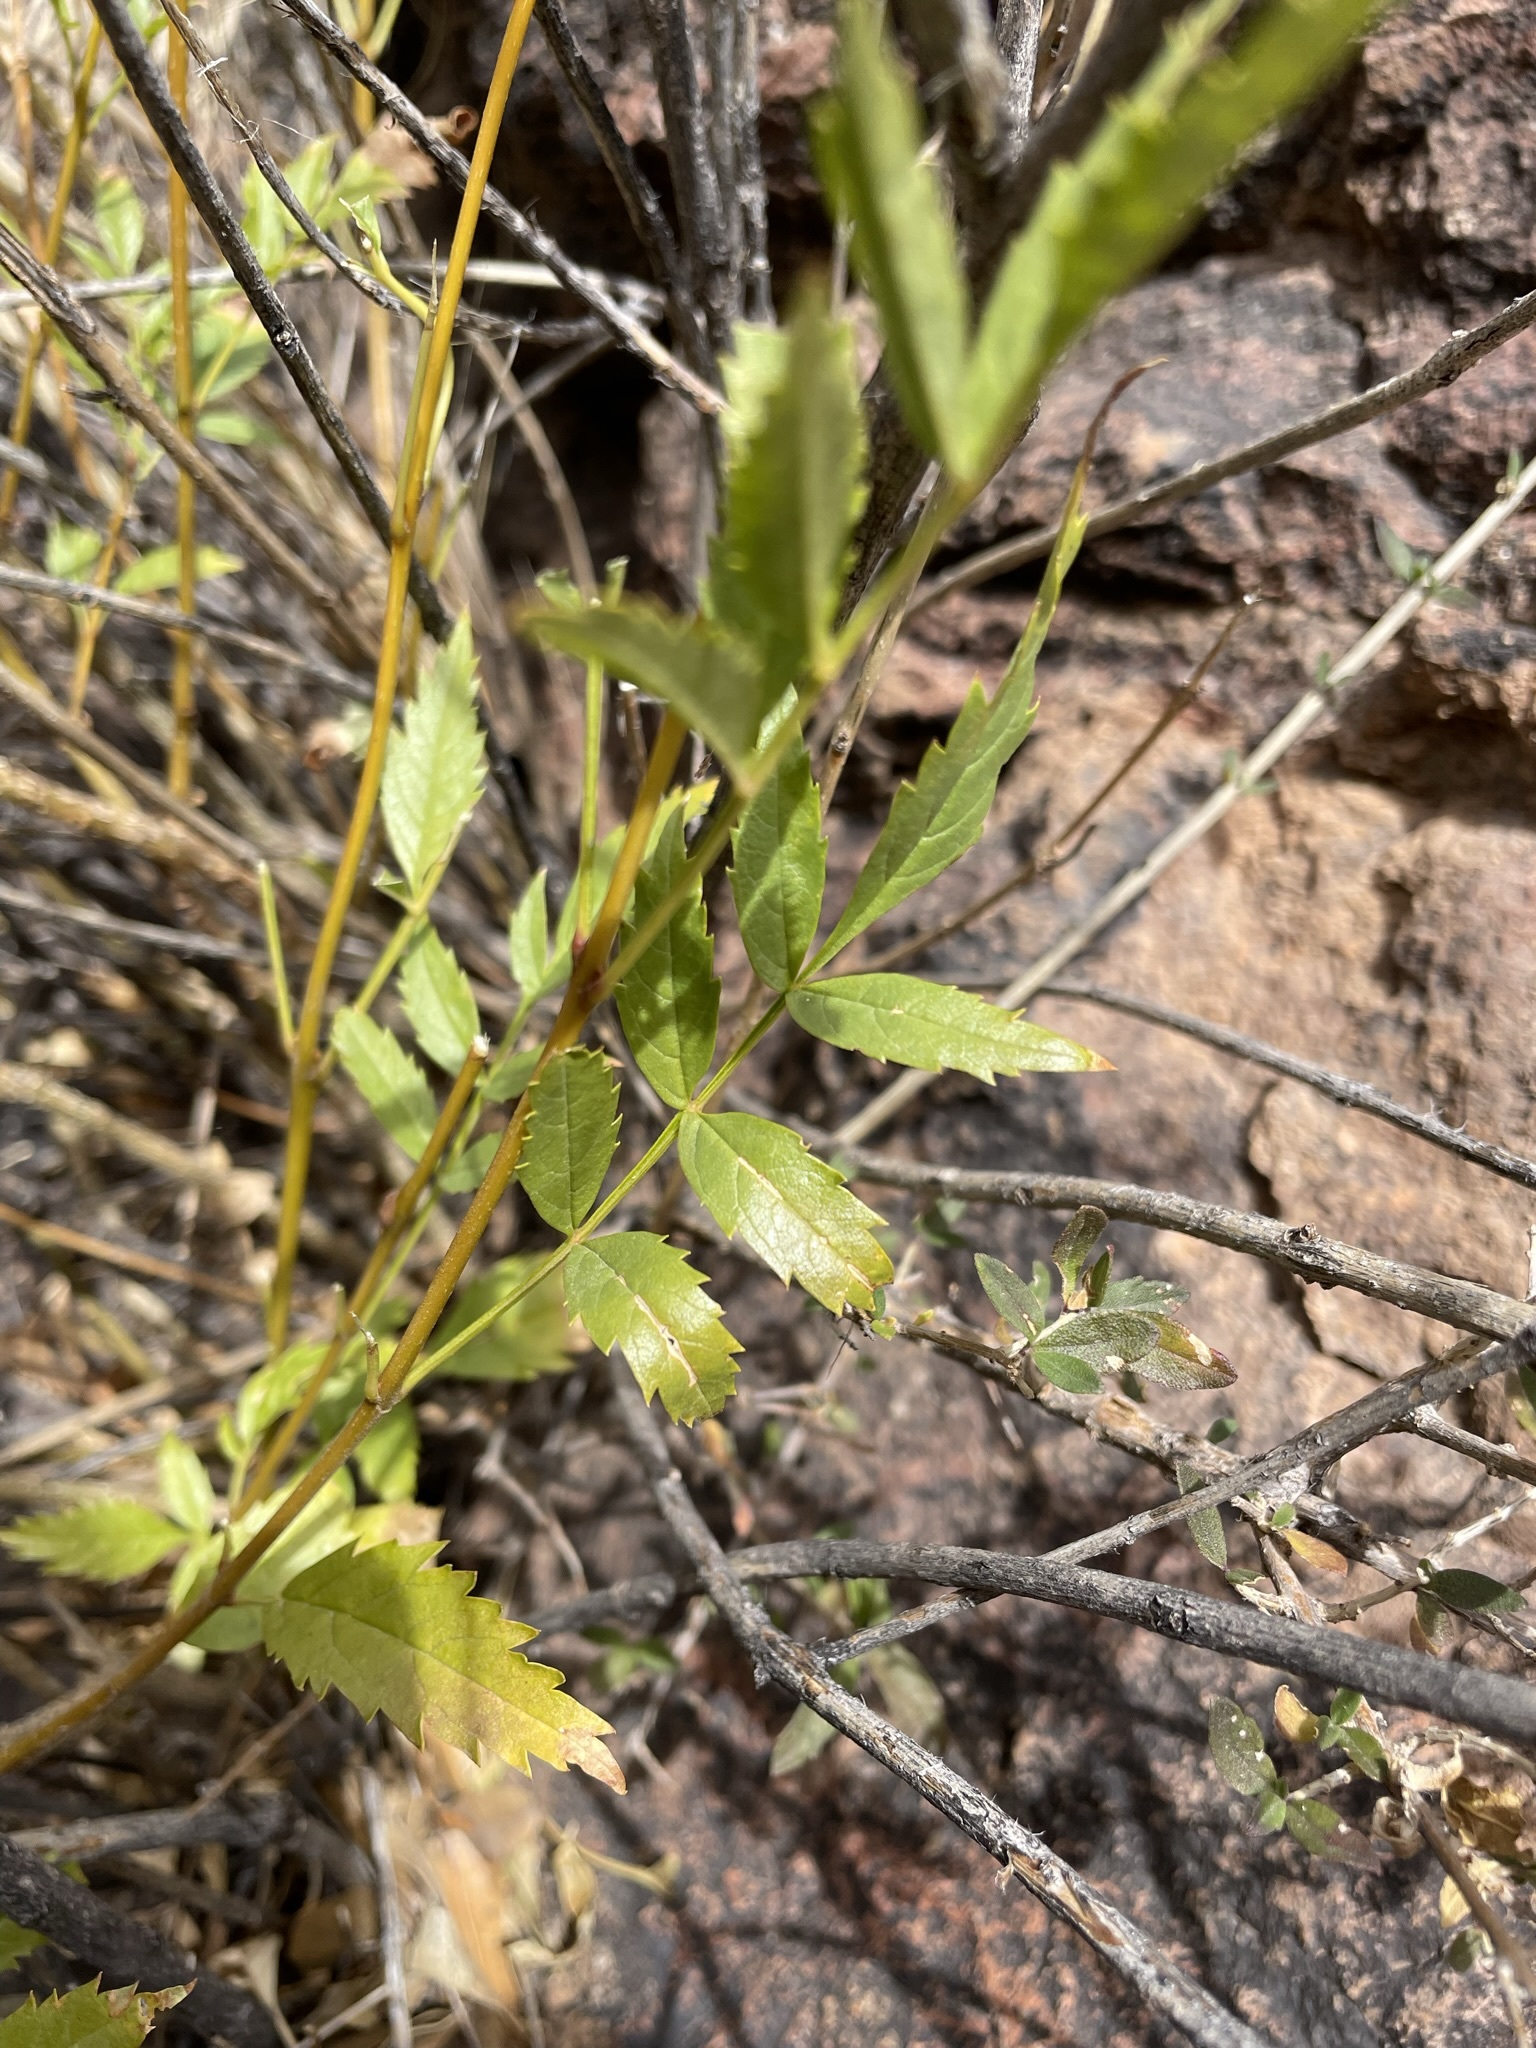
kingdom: Plantae
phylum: Tracheophyta
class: Magnoliopsida
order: Lamiales
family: Bignoniaceae
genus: Tecoma
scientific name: Tecoma stans
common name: Yellow trumpetbush
